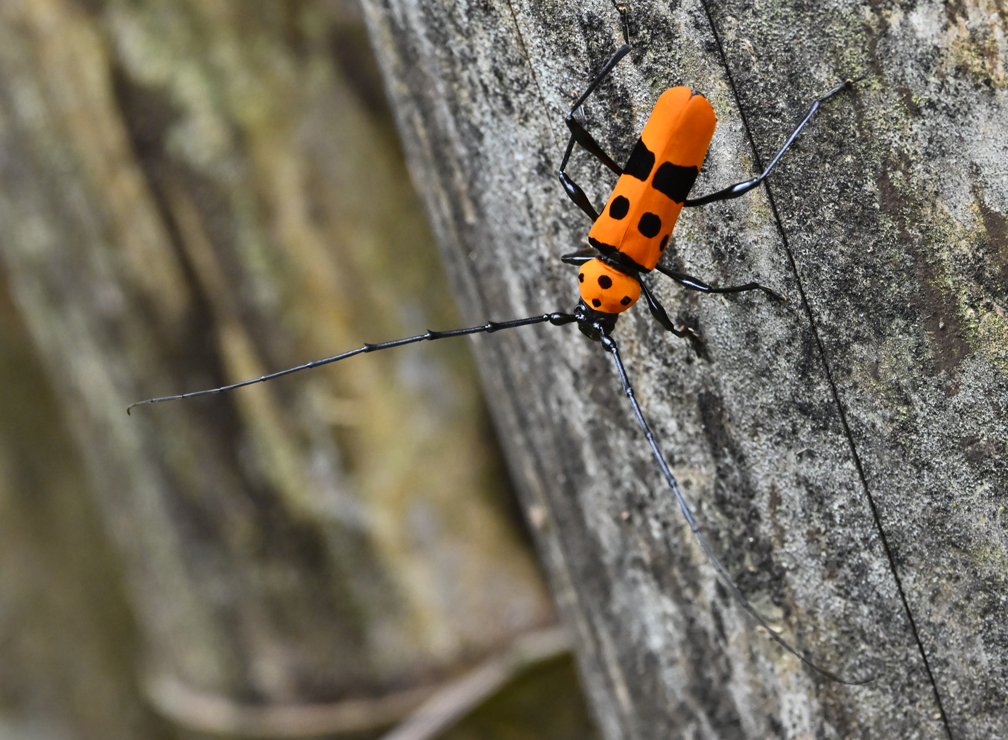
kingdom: Animalia
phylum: Arthropoda
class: Insecta
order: Coleoptera
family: Cerambycidae
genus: Rosalia
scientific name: Rosalia formosa
